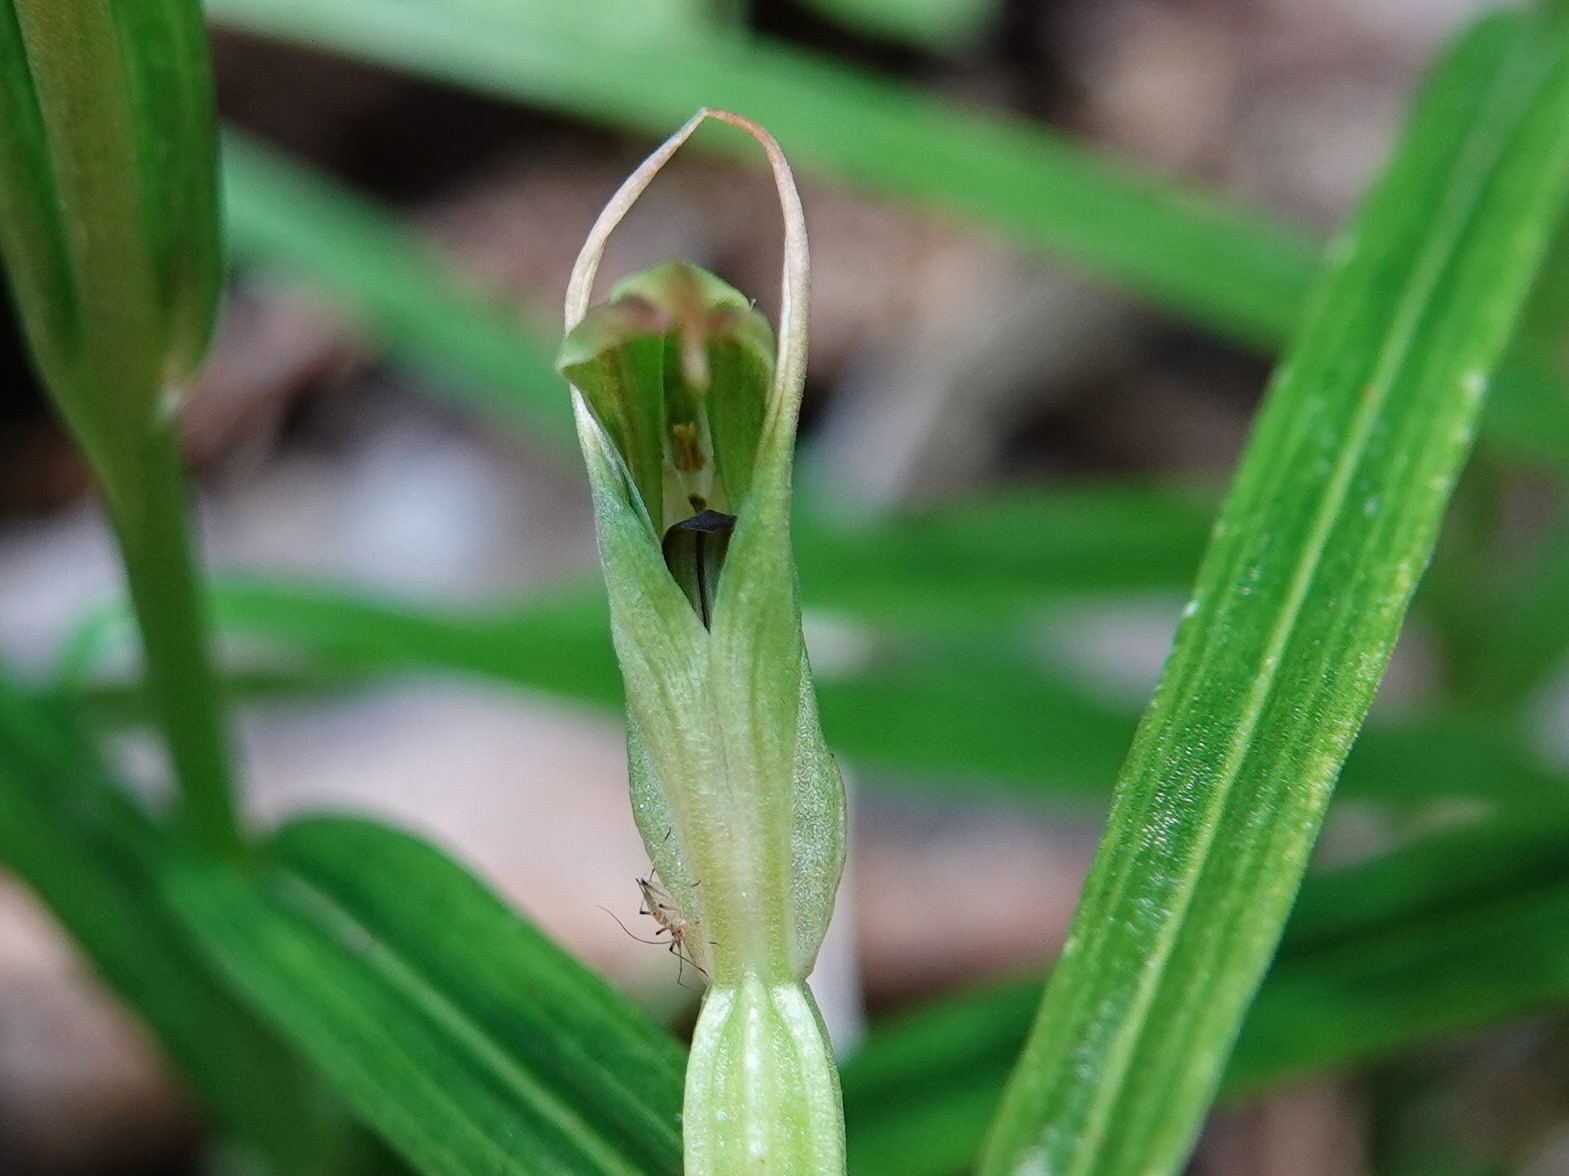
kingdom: Plantae
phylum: Tracheophyta
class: Liliopsida
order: Asparagales
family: Orchidaceae
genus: Pterostylis
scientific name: Pterostylis graminea
